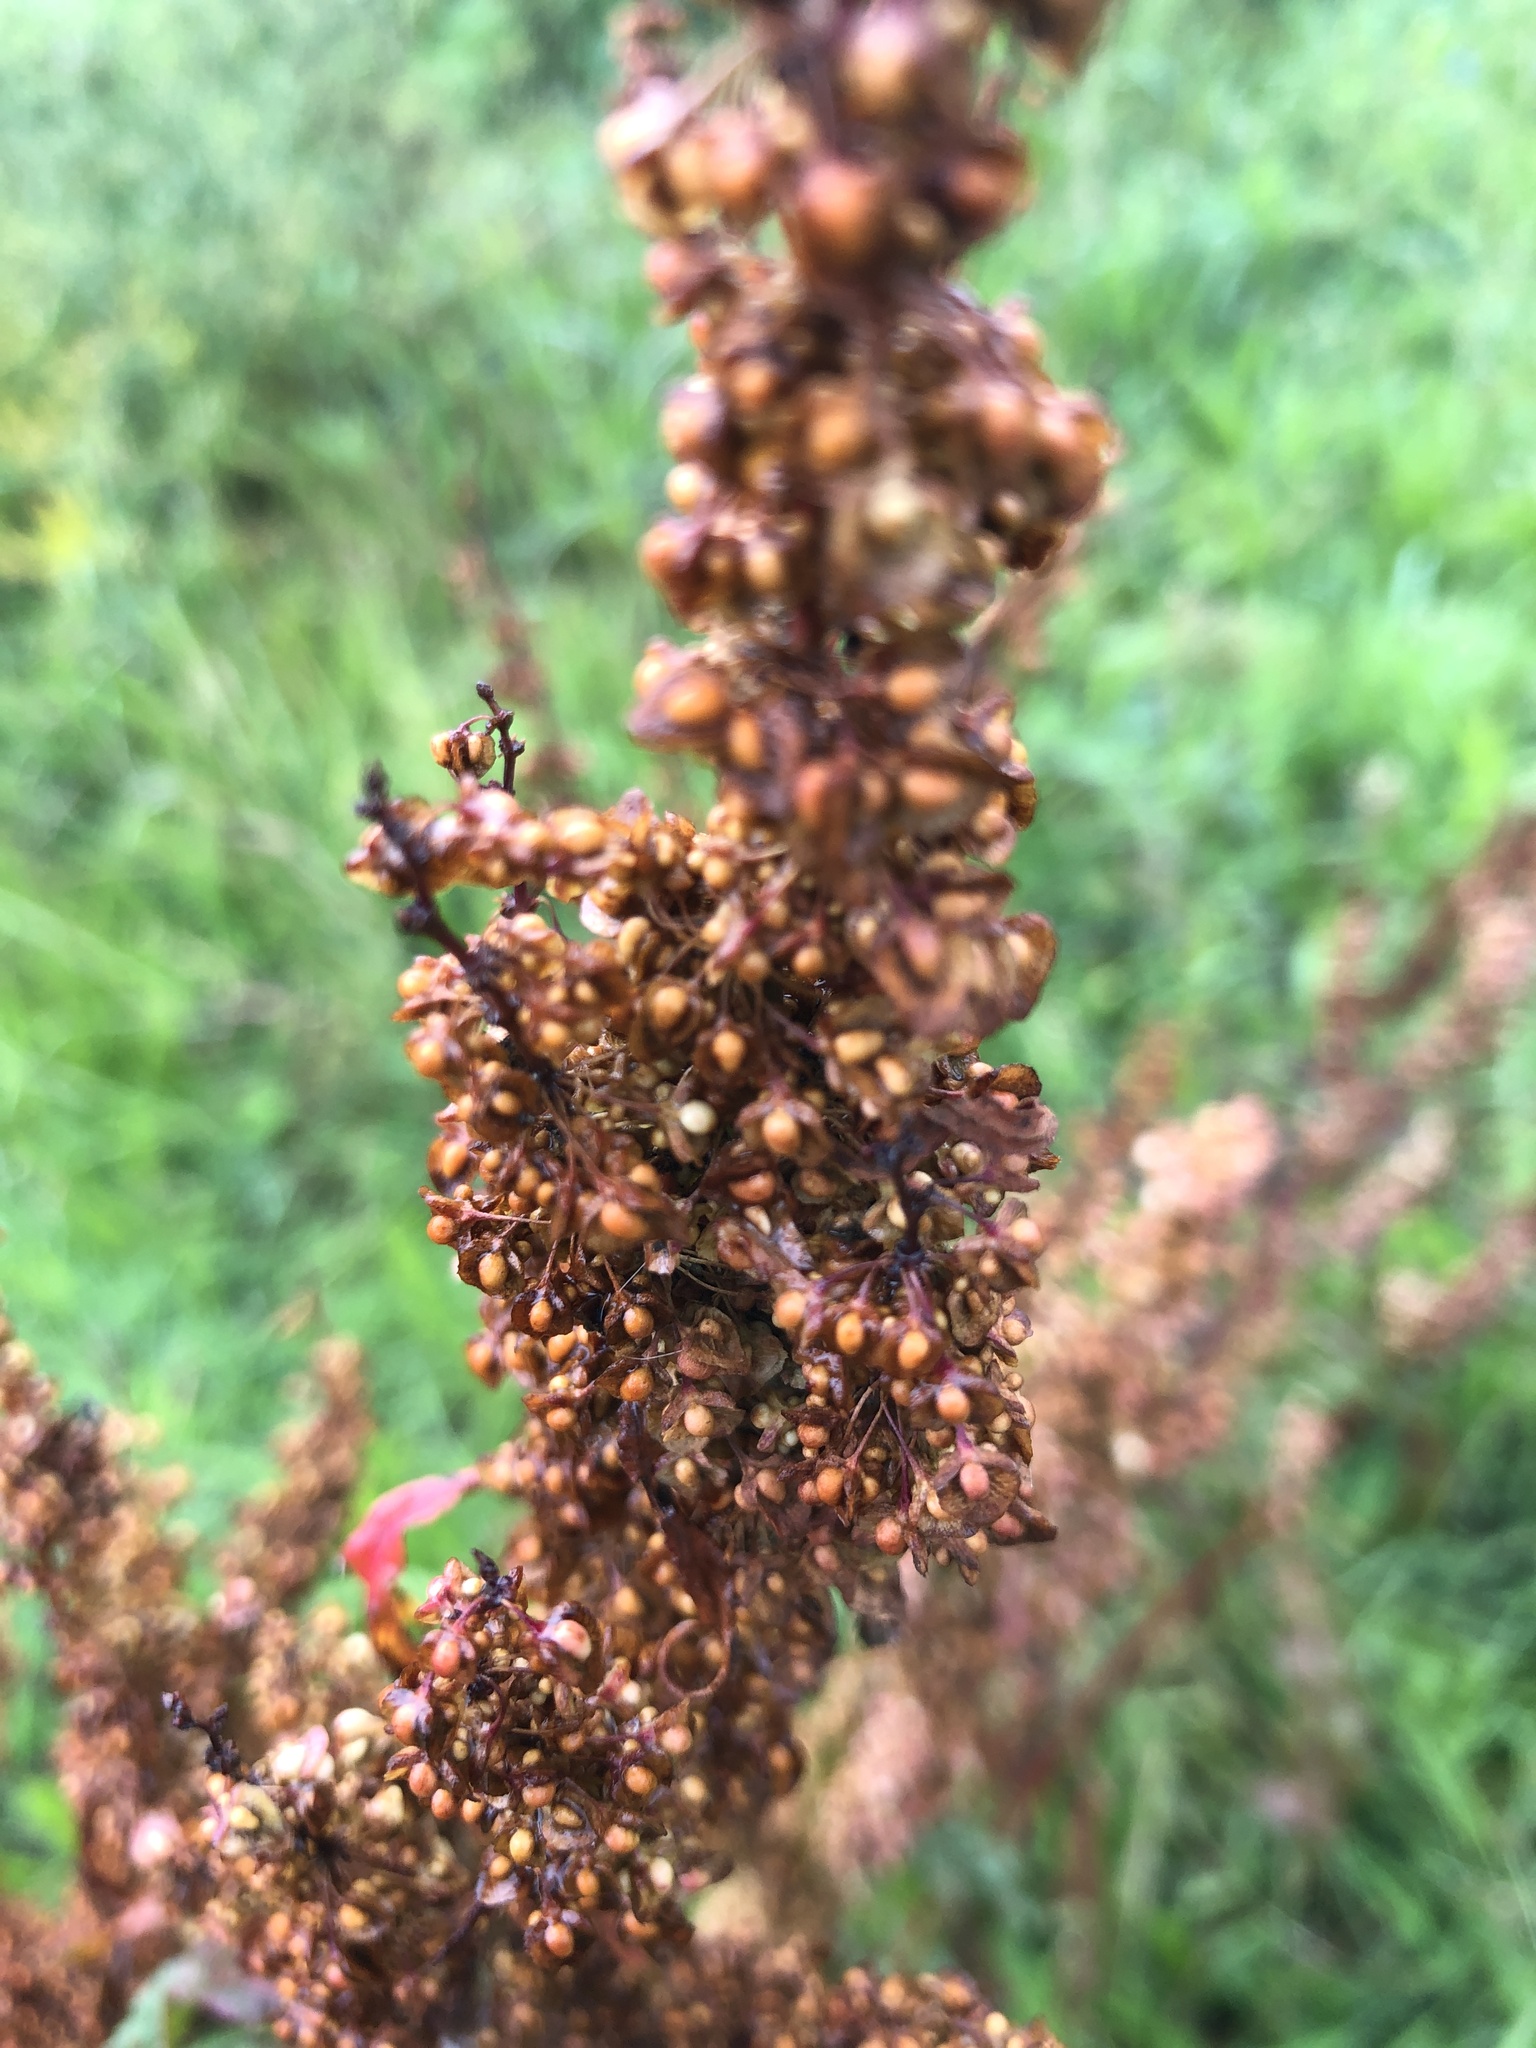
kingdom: Plantae
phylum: Tracheophyta
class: Magnoliopsida
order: Caryophyllales
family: Polygonaceae
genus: Rumex
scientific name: Rumex crispus
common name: Curled dock
